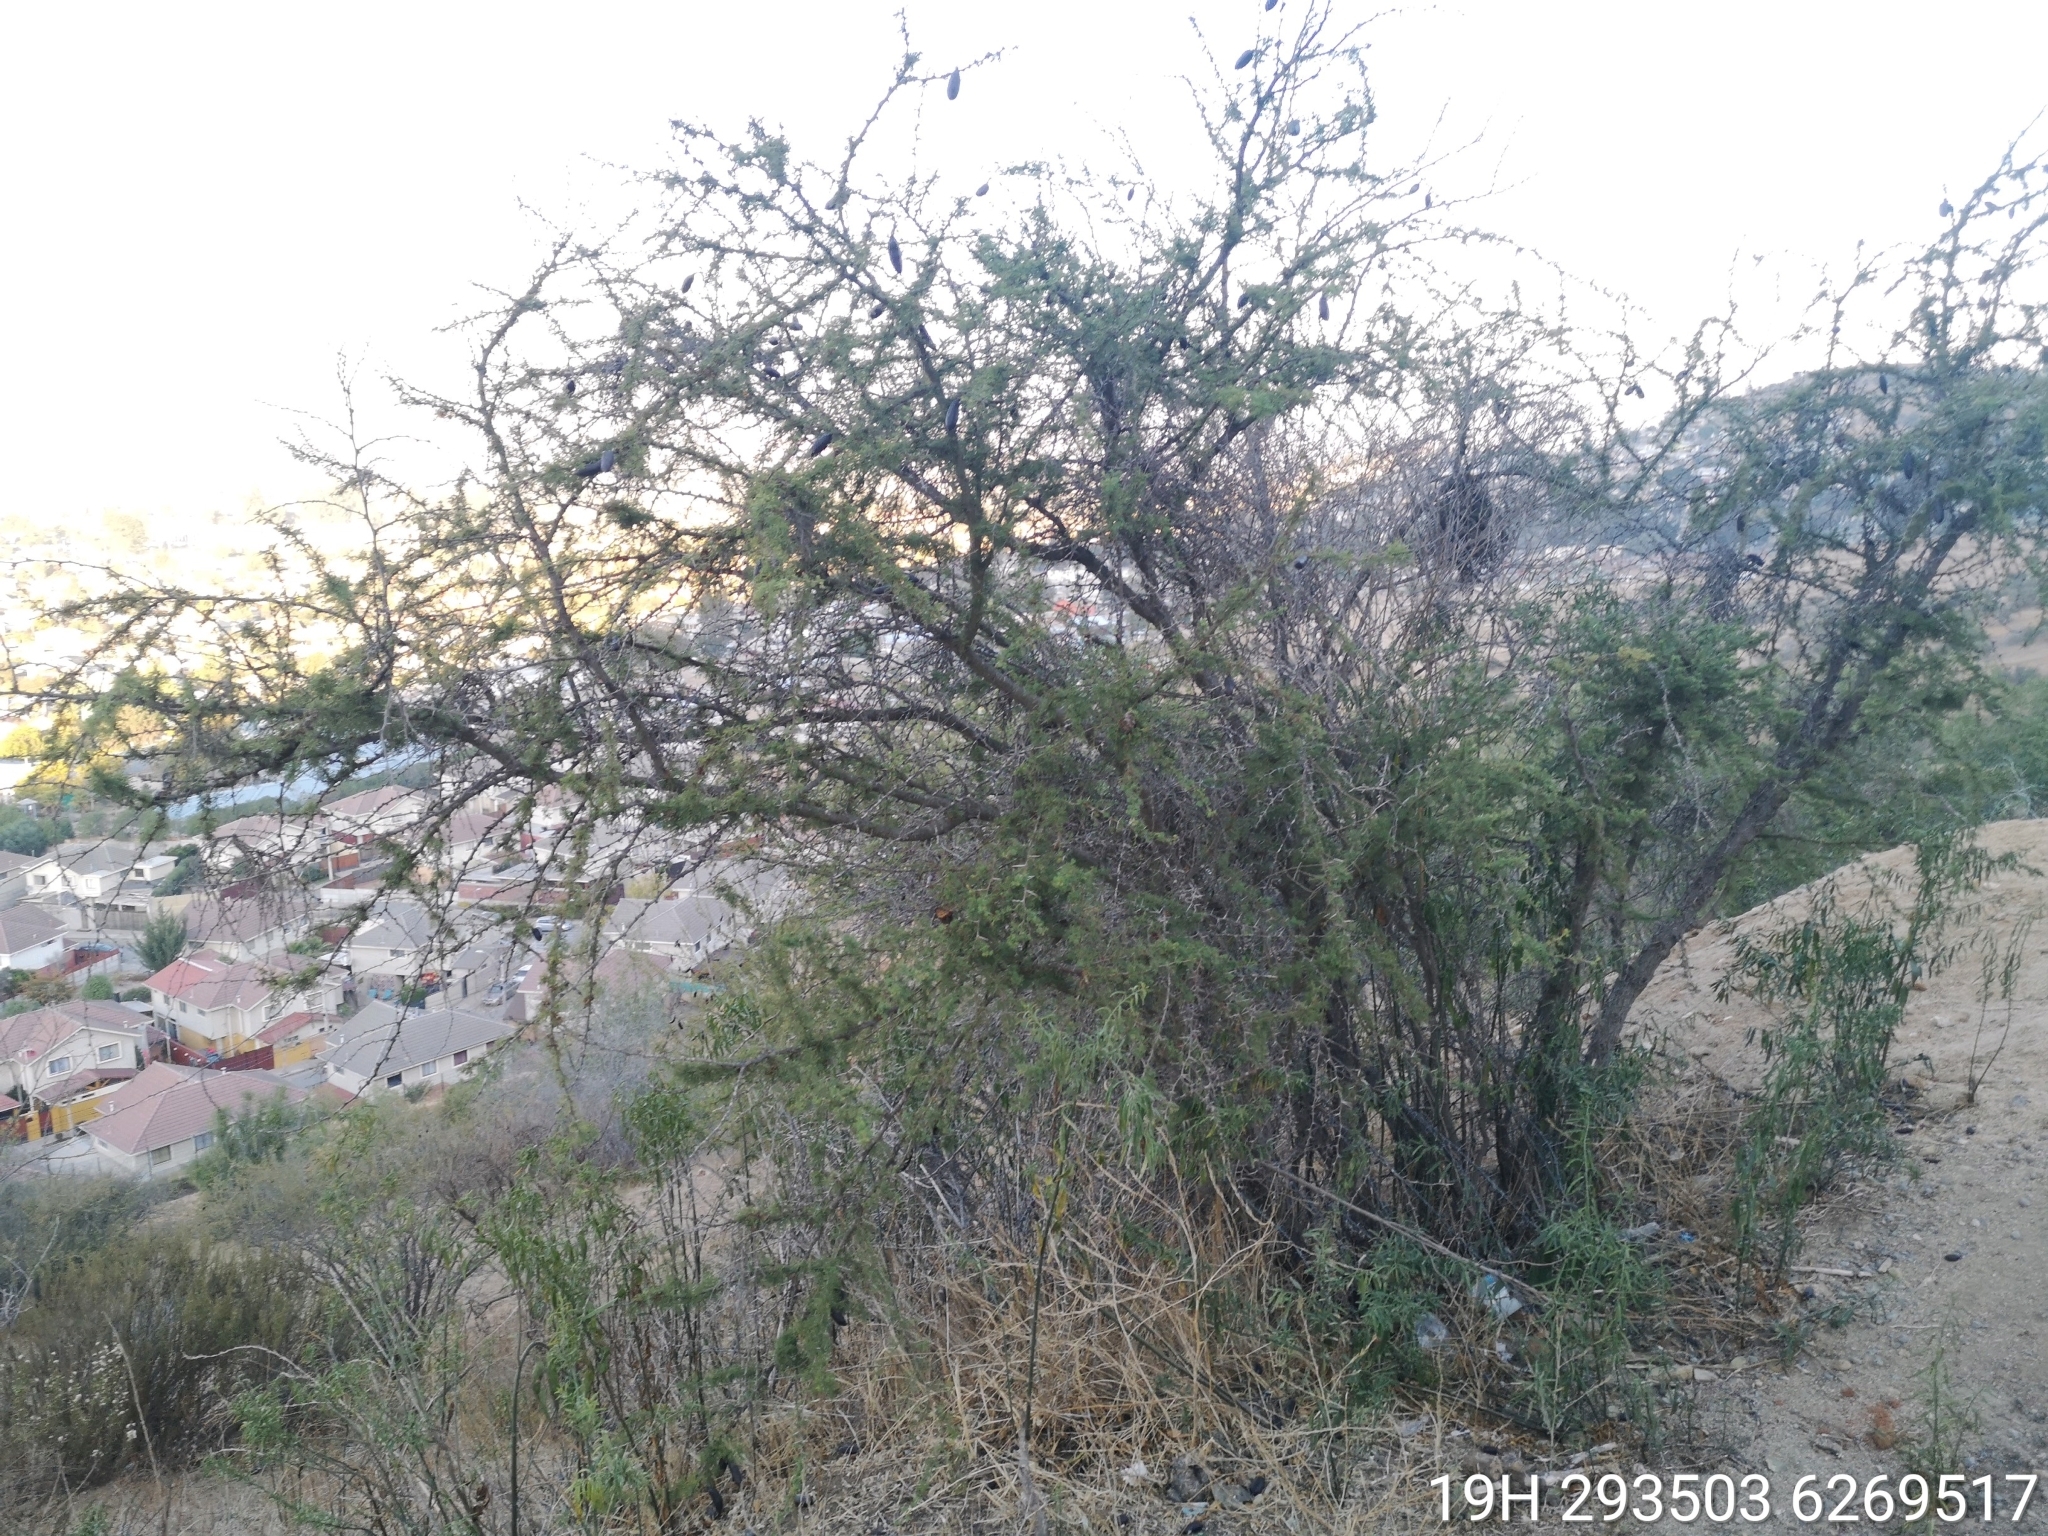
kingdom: Plantae
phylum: Tracheophyta
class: Magnoliopsida
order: Fabales
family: Fabaceae
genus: Vachellia
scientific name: Vachellia caven
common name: Roman cassie
